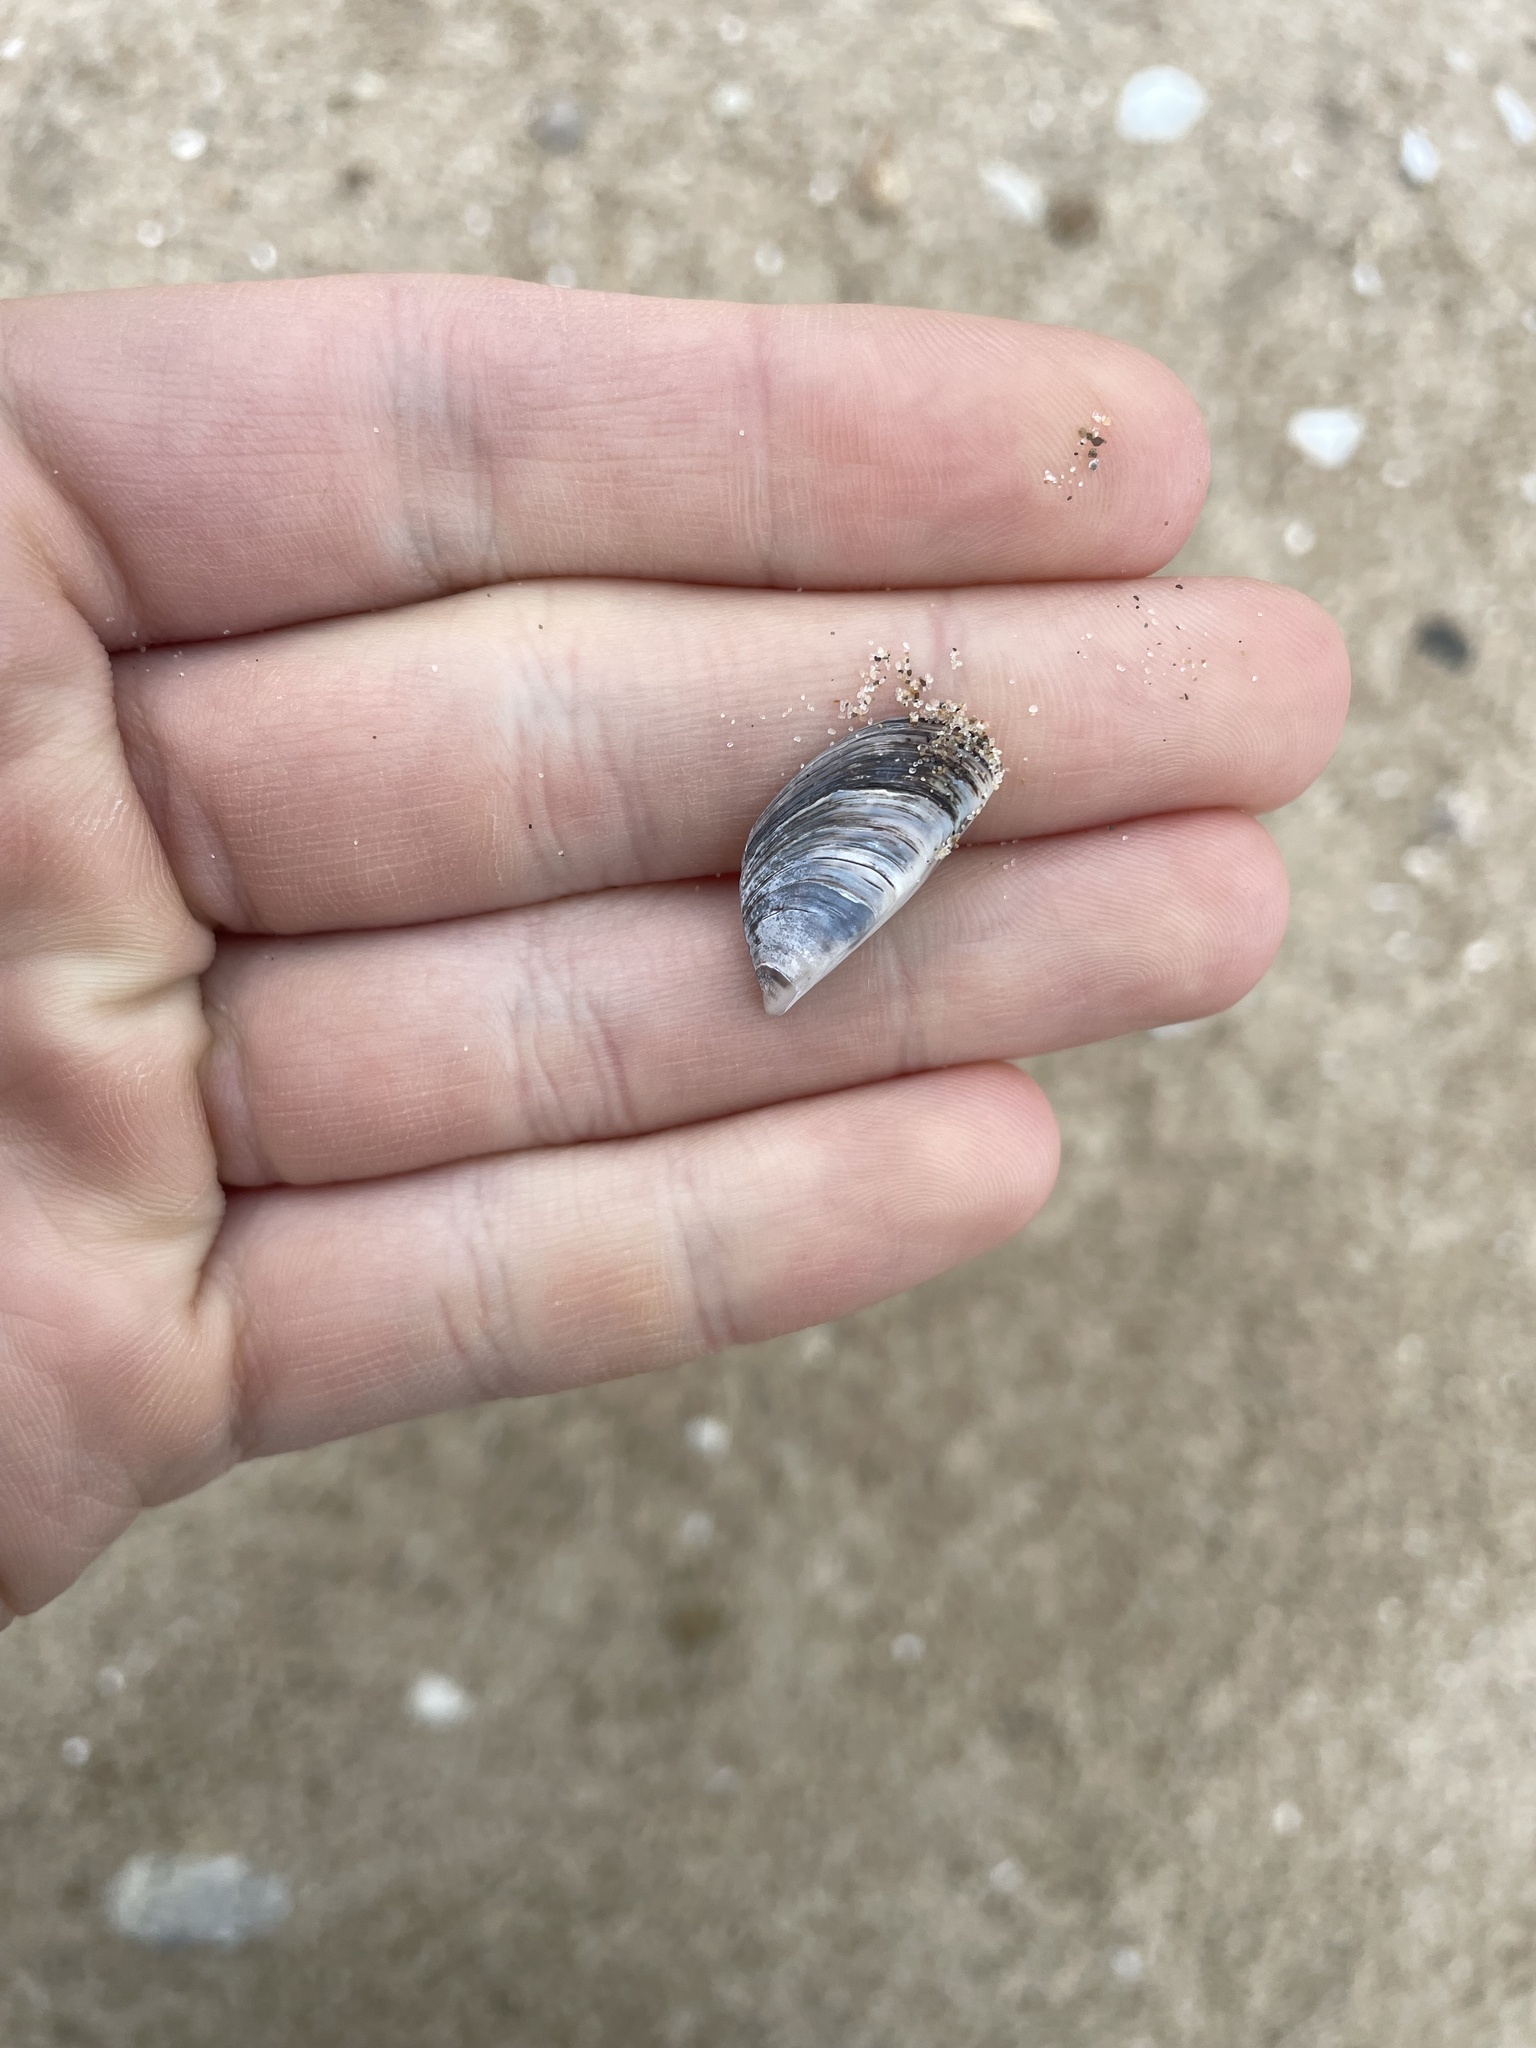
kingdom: Animalia
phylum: Mollusca
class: Bivalvia
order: Myida
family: Dreissenidae
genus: Dreissena
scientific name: Dreissena polymorpha
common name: Zebra mussel
